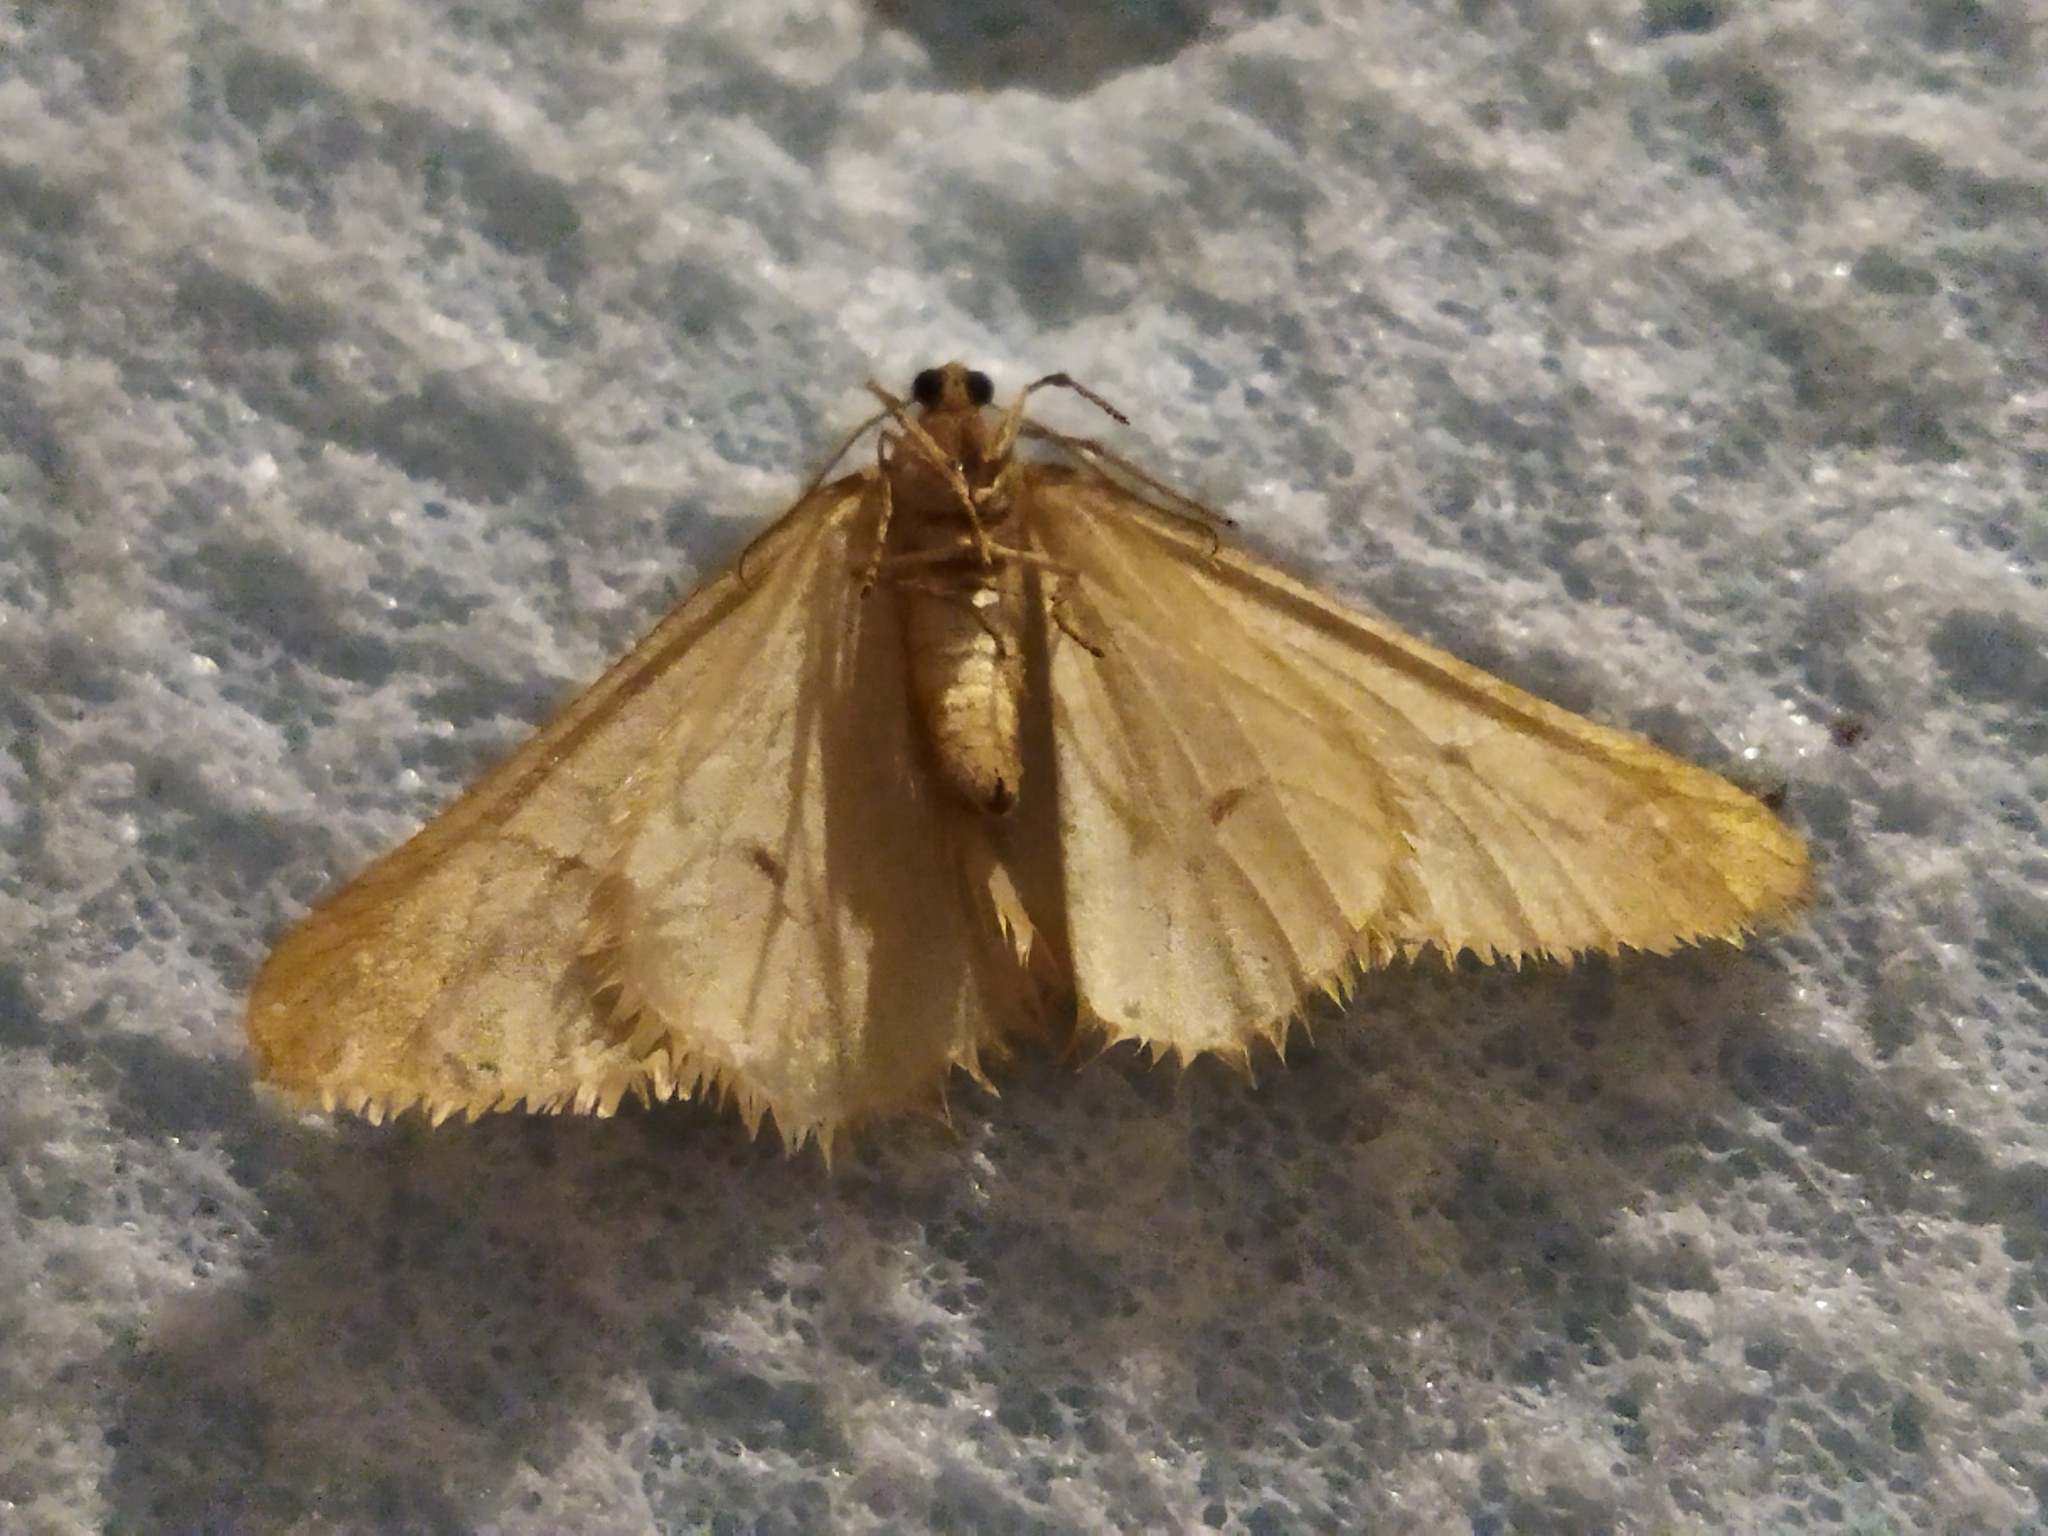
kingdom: Animalia
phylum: Arthropoda
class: Insecta
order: Lepidoptera
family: Geometridae
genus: Alsophila
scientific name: Alsophila aceraria
